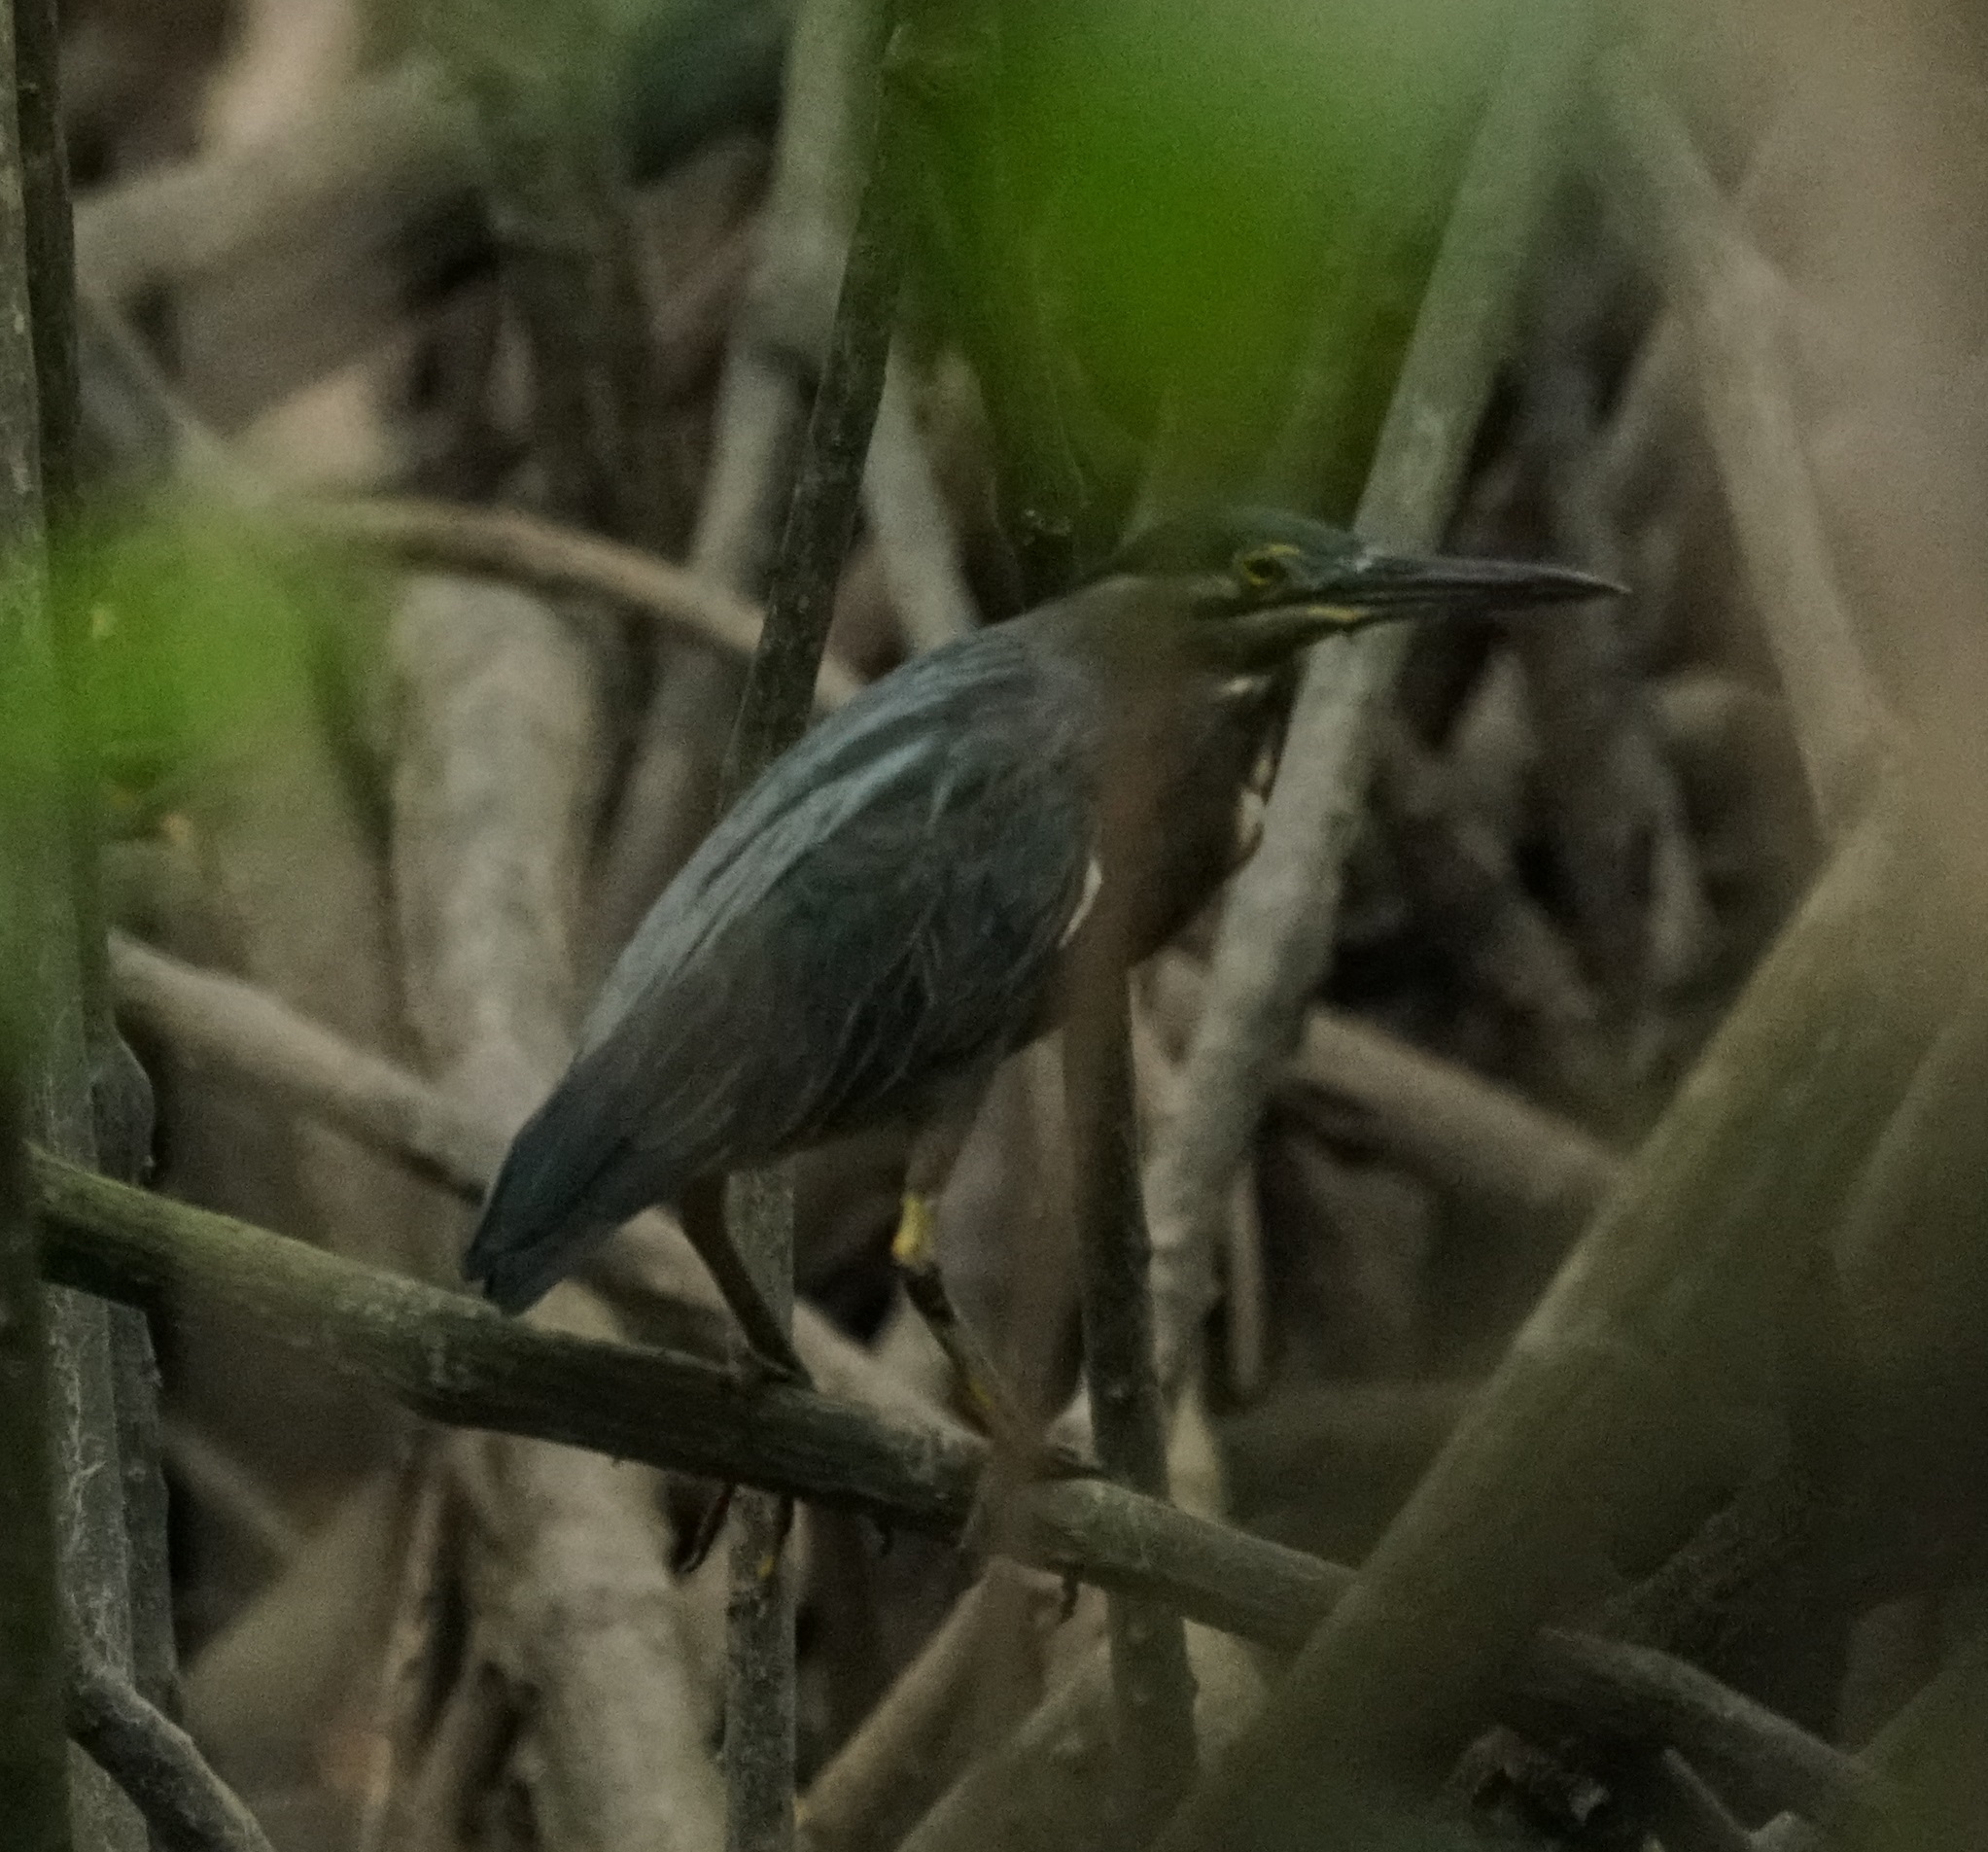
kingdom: Animalia
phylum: Chordata
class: Aves
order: Pelecaniformes
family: Ardeidae
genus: Butorides
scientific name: Butorides striata
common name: Striated heron
